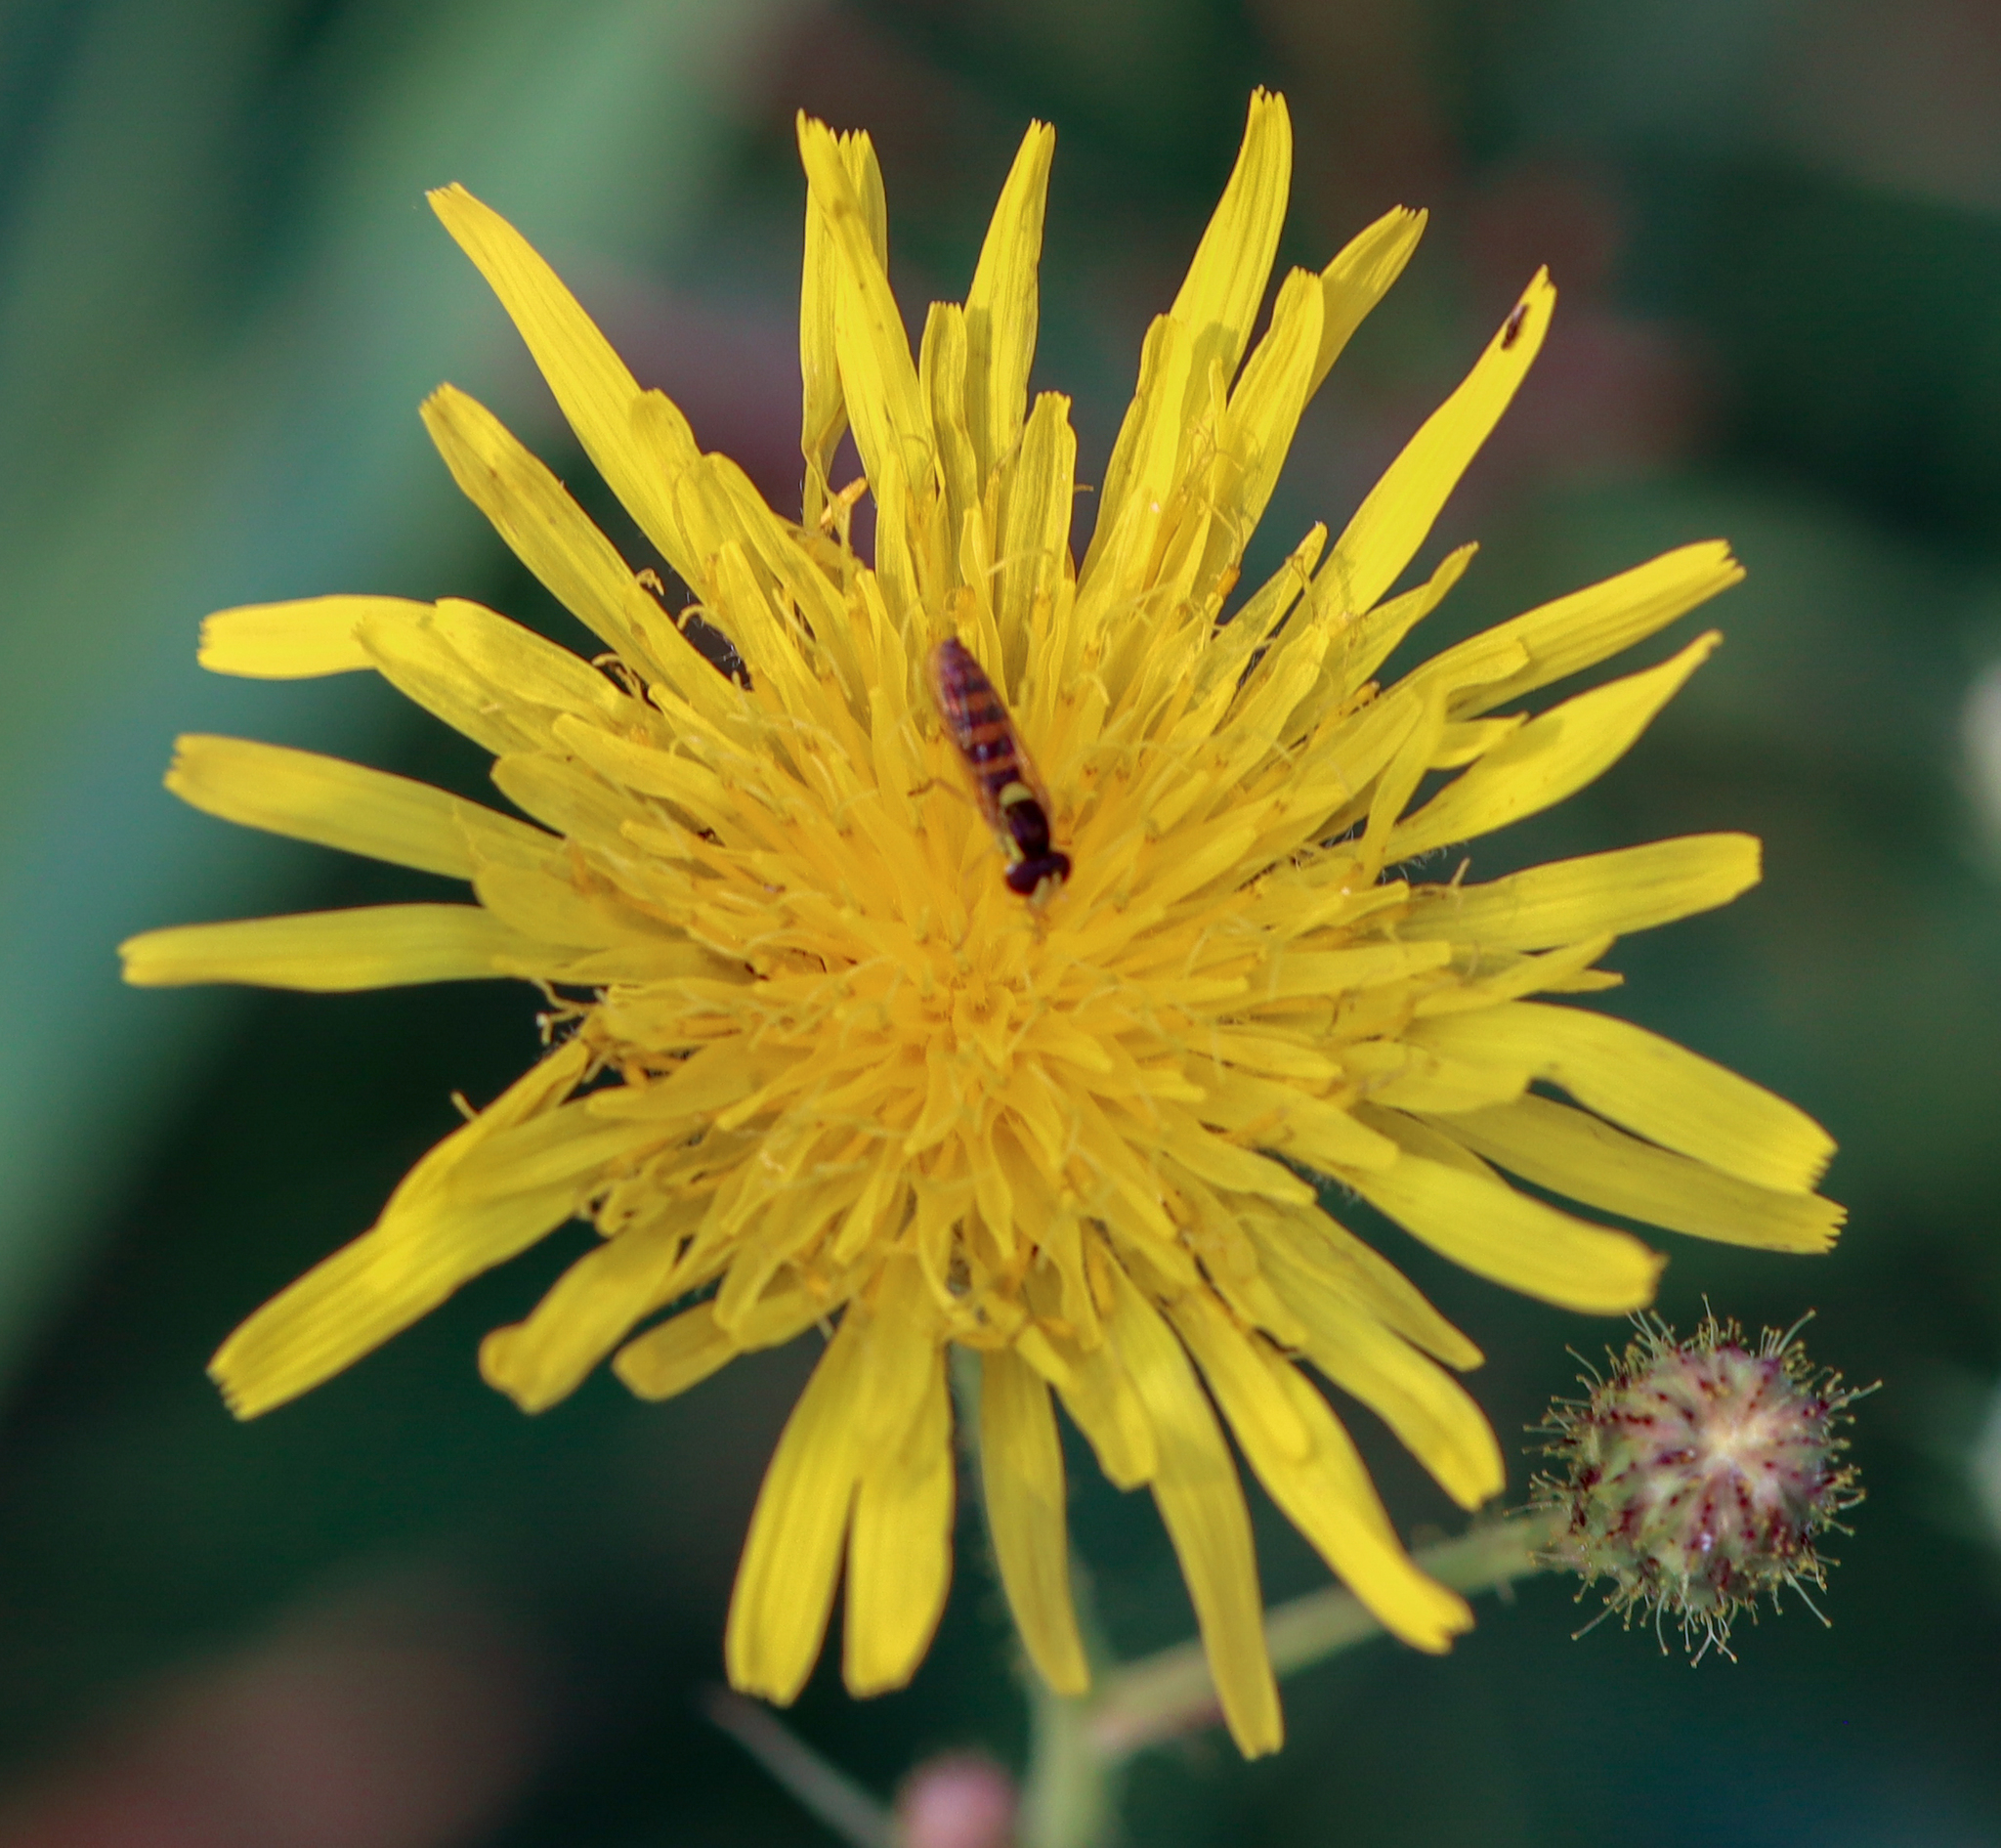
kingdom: Animalia
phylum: Arthropoda
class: Insecta
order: Diptera
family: Syrphidae
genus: Sphaerophoria
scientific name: Sphaerophoria
